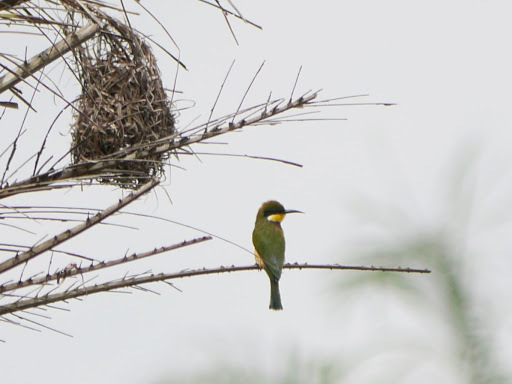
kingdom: Animalia
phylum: Chordata
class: Aves
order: Coraciiformes
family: Meropidae
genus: Merops
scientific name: Merops variegatus
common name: Blue-breasted bee-eater
